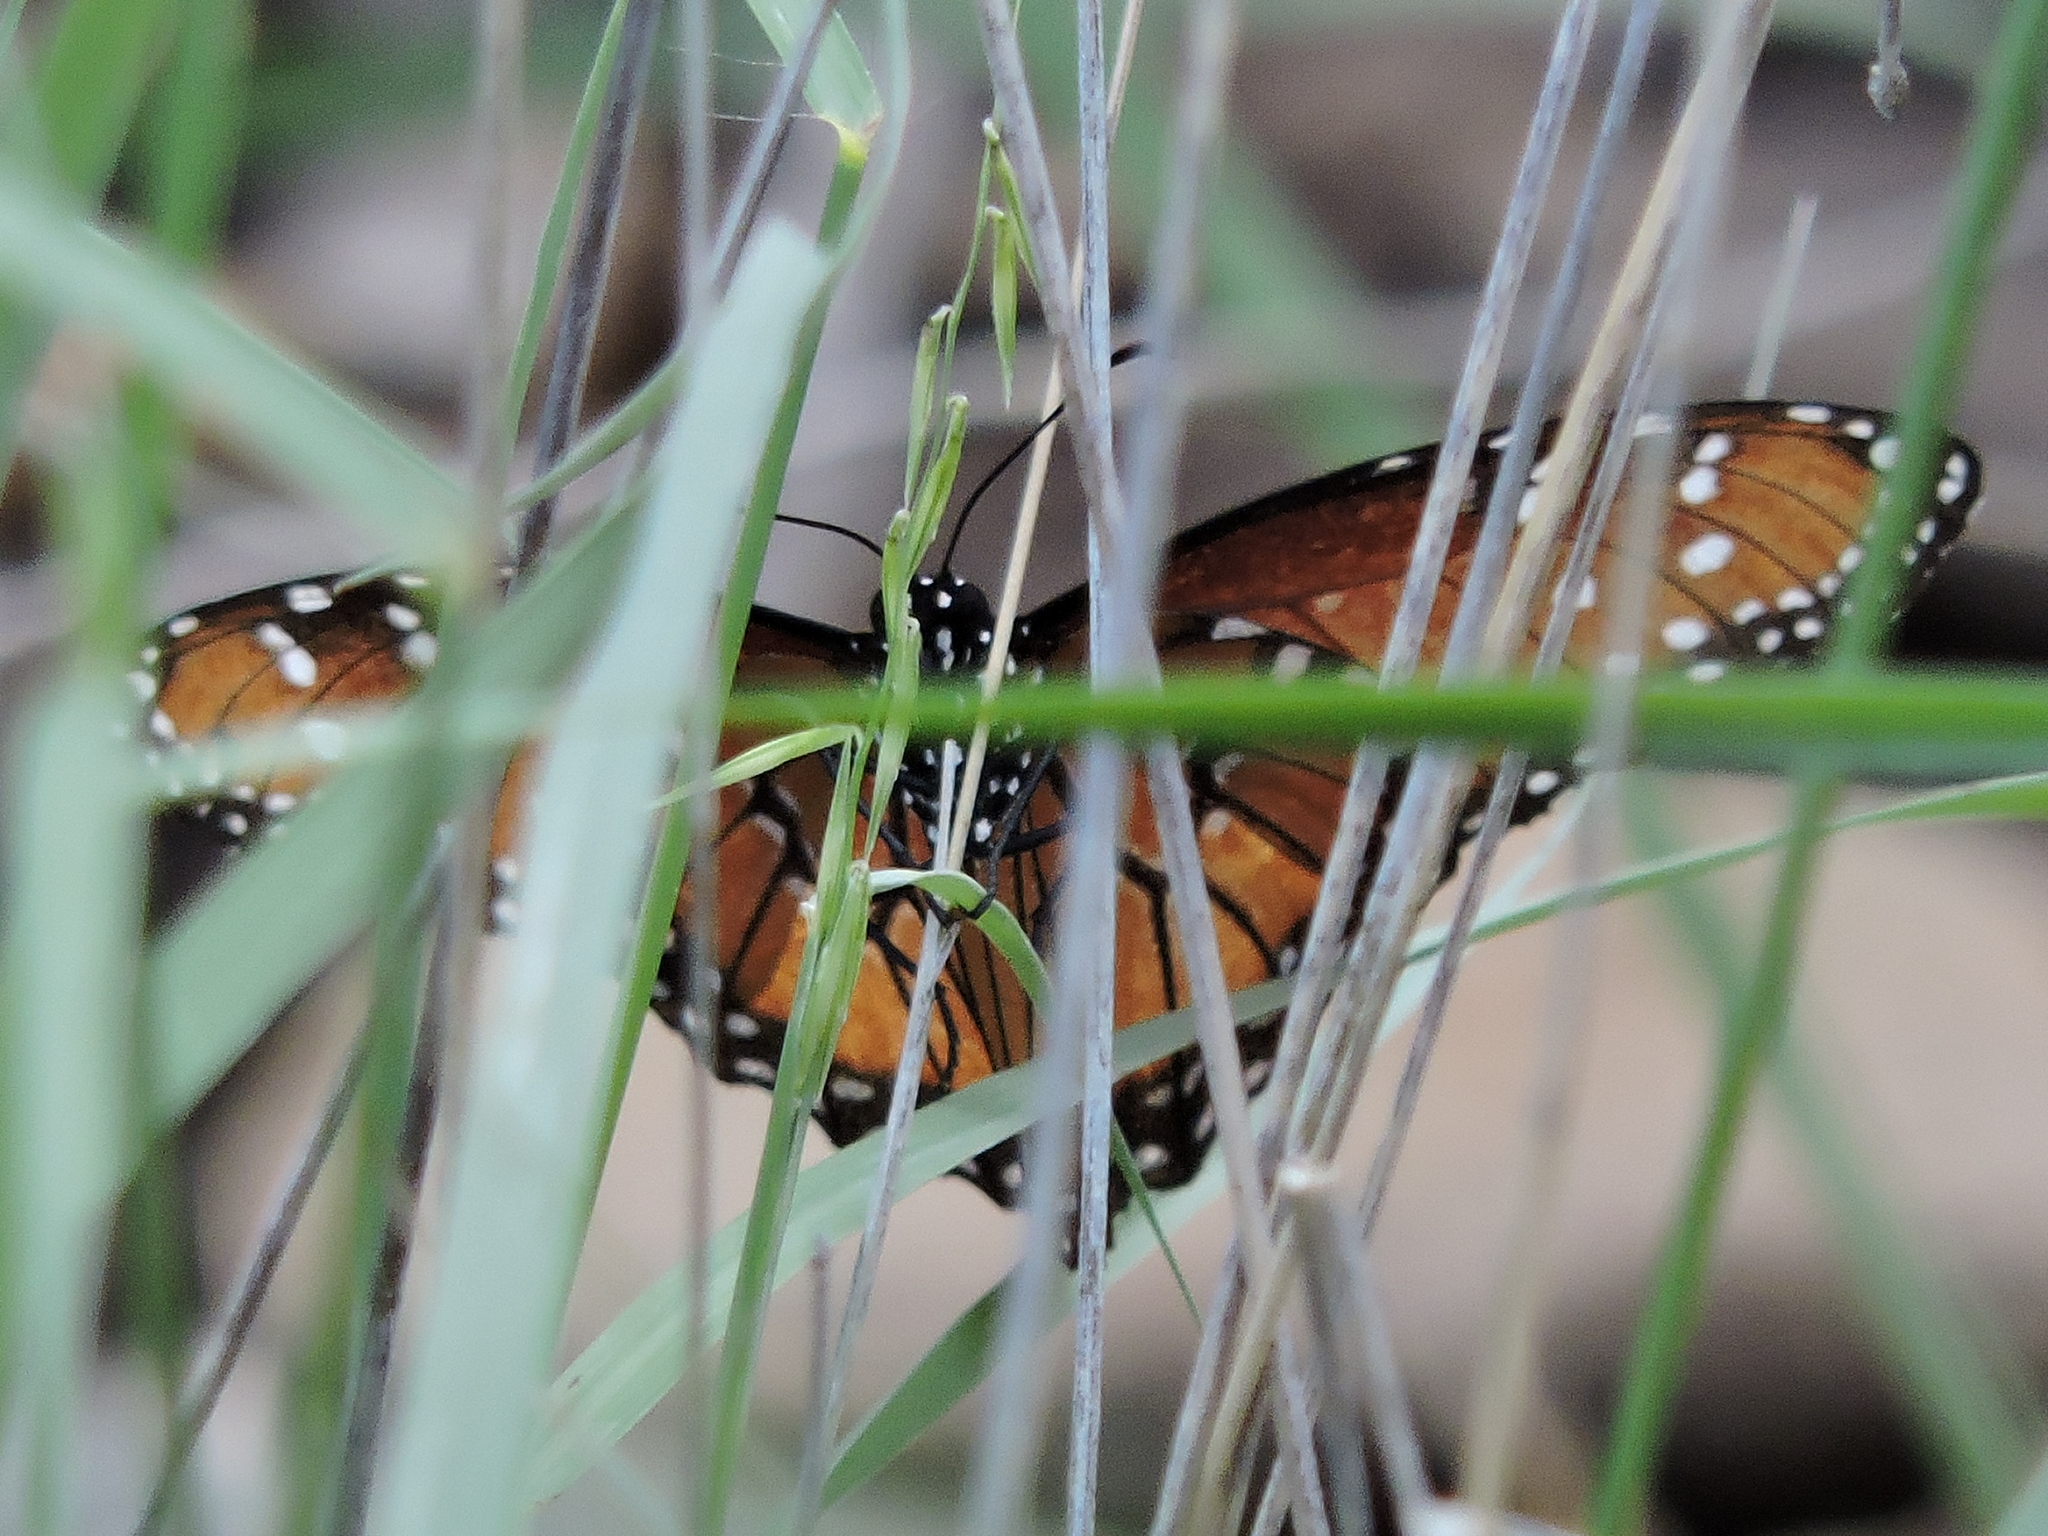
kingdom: Animalia
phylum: Arthropoda
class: Insecta
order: Lepidoptera
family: Nymphalidae
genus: Danaus
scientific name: Danaus gilippus
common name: Queen
